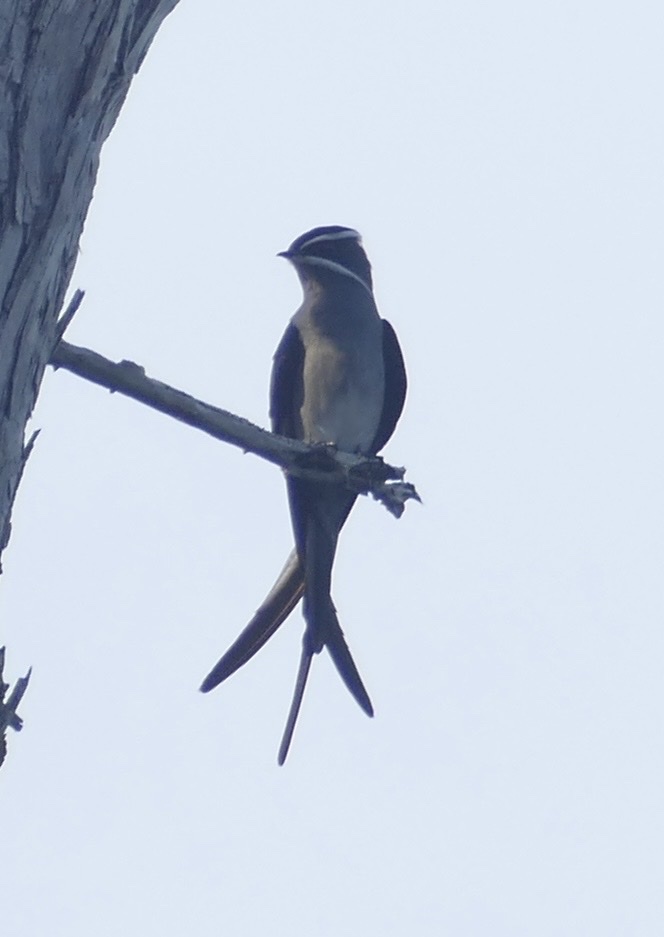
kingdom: Animalia
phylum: Chordata
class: Aves
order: Apodiformes
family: Hemiprocnidae
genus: Hemiprocne
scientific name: Hemiprocne mystacea
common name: Moustached treeswift
